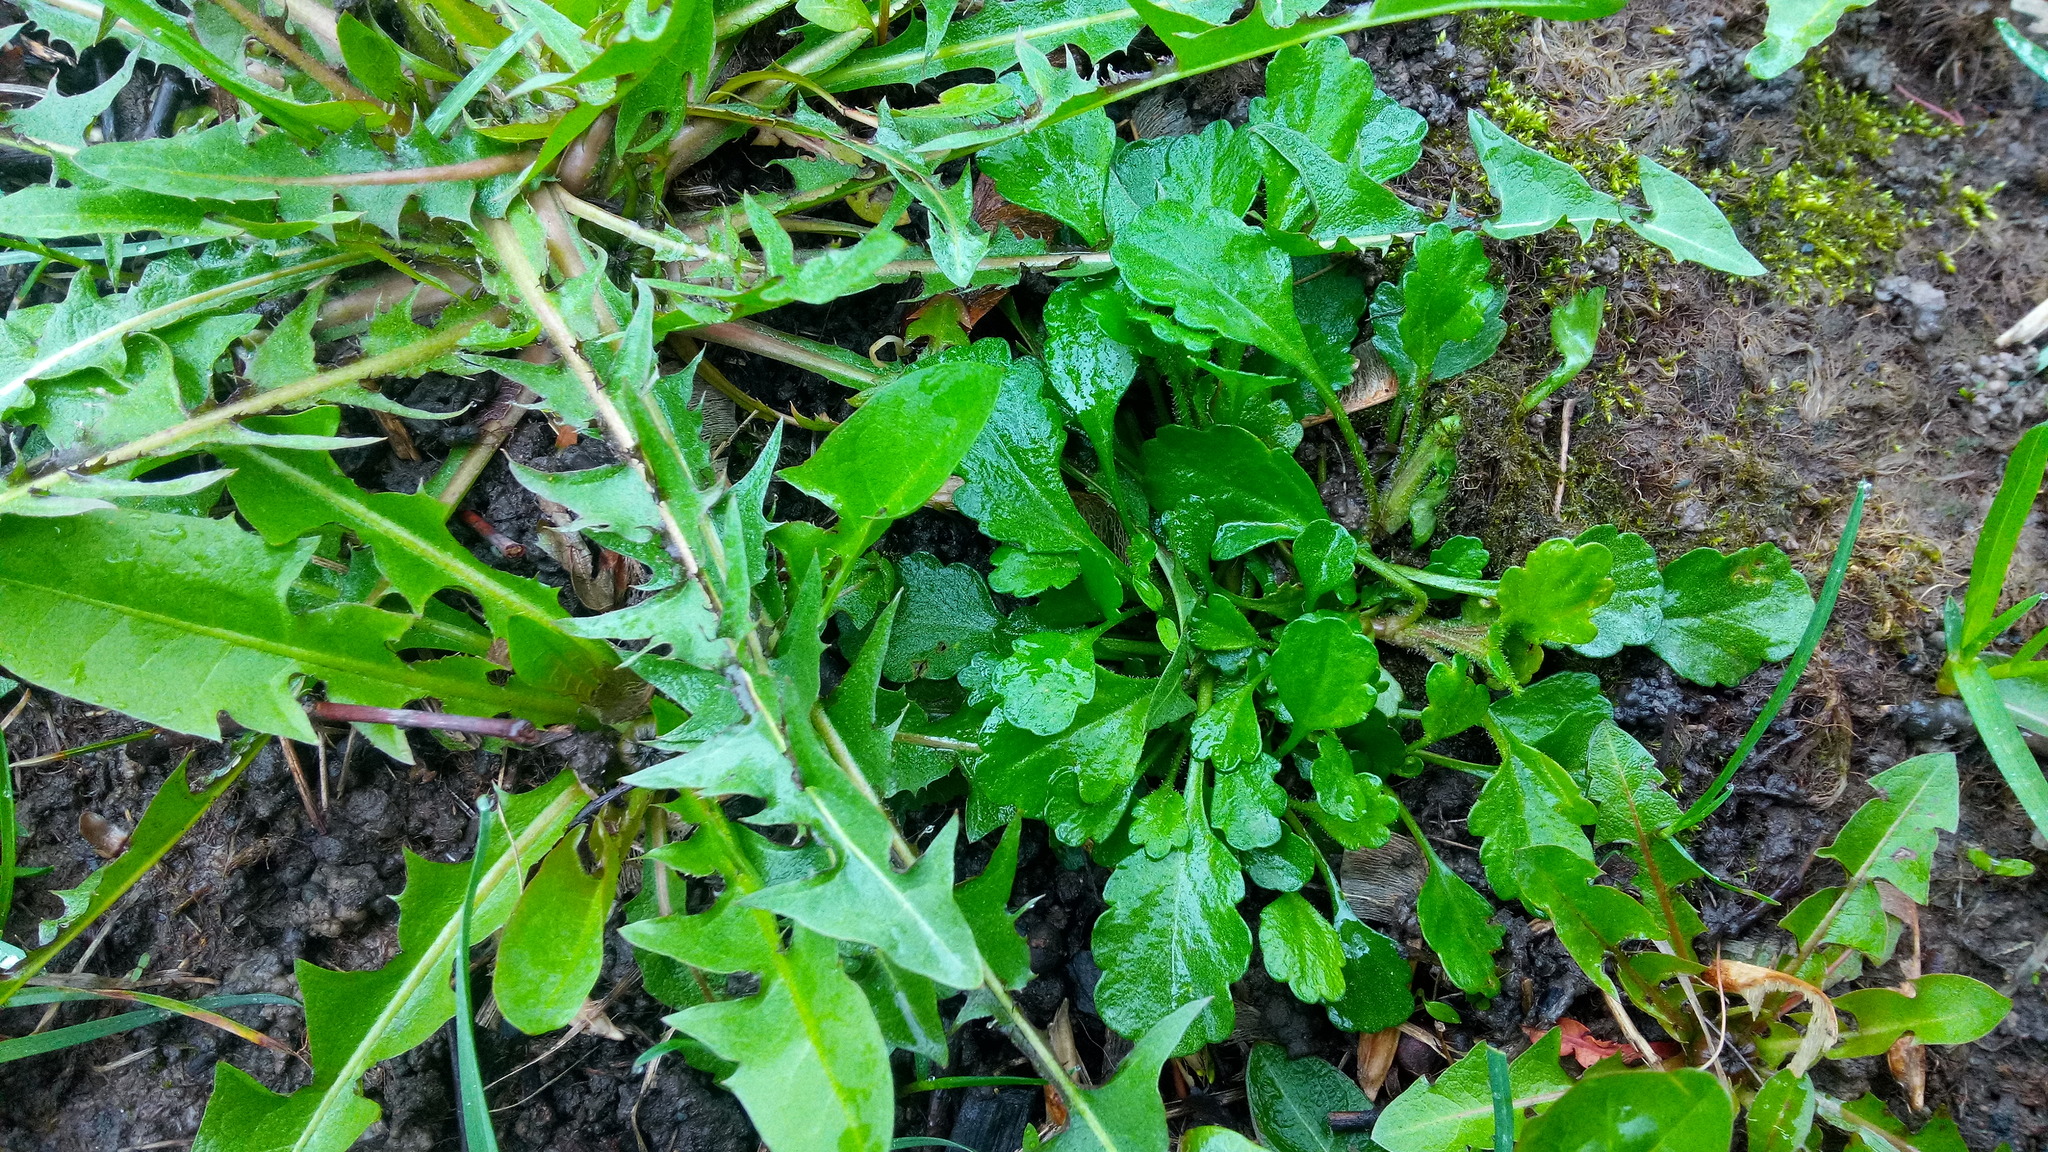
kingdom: Plantae
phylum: Tracheophyta
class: Magnoliopsida
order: Asterales
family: Asteraceae
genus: Leucanthemum
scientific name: Leucanthemum vulgare
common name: Oxeye daisy
